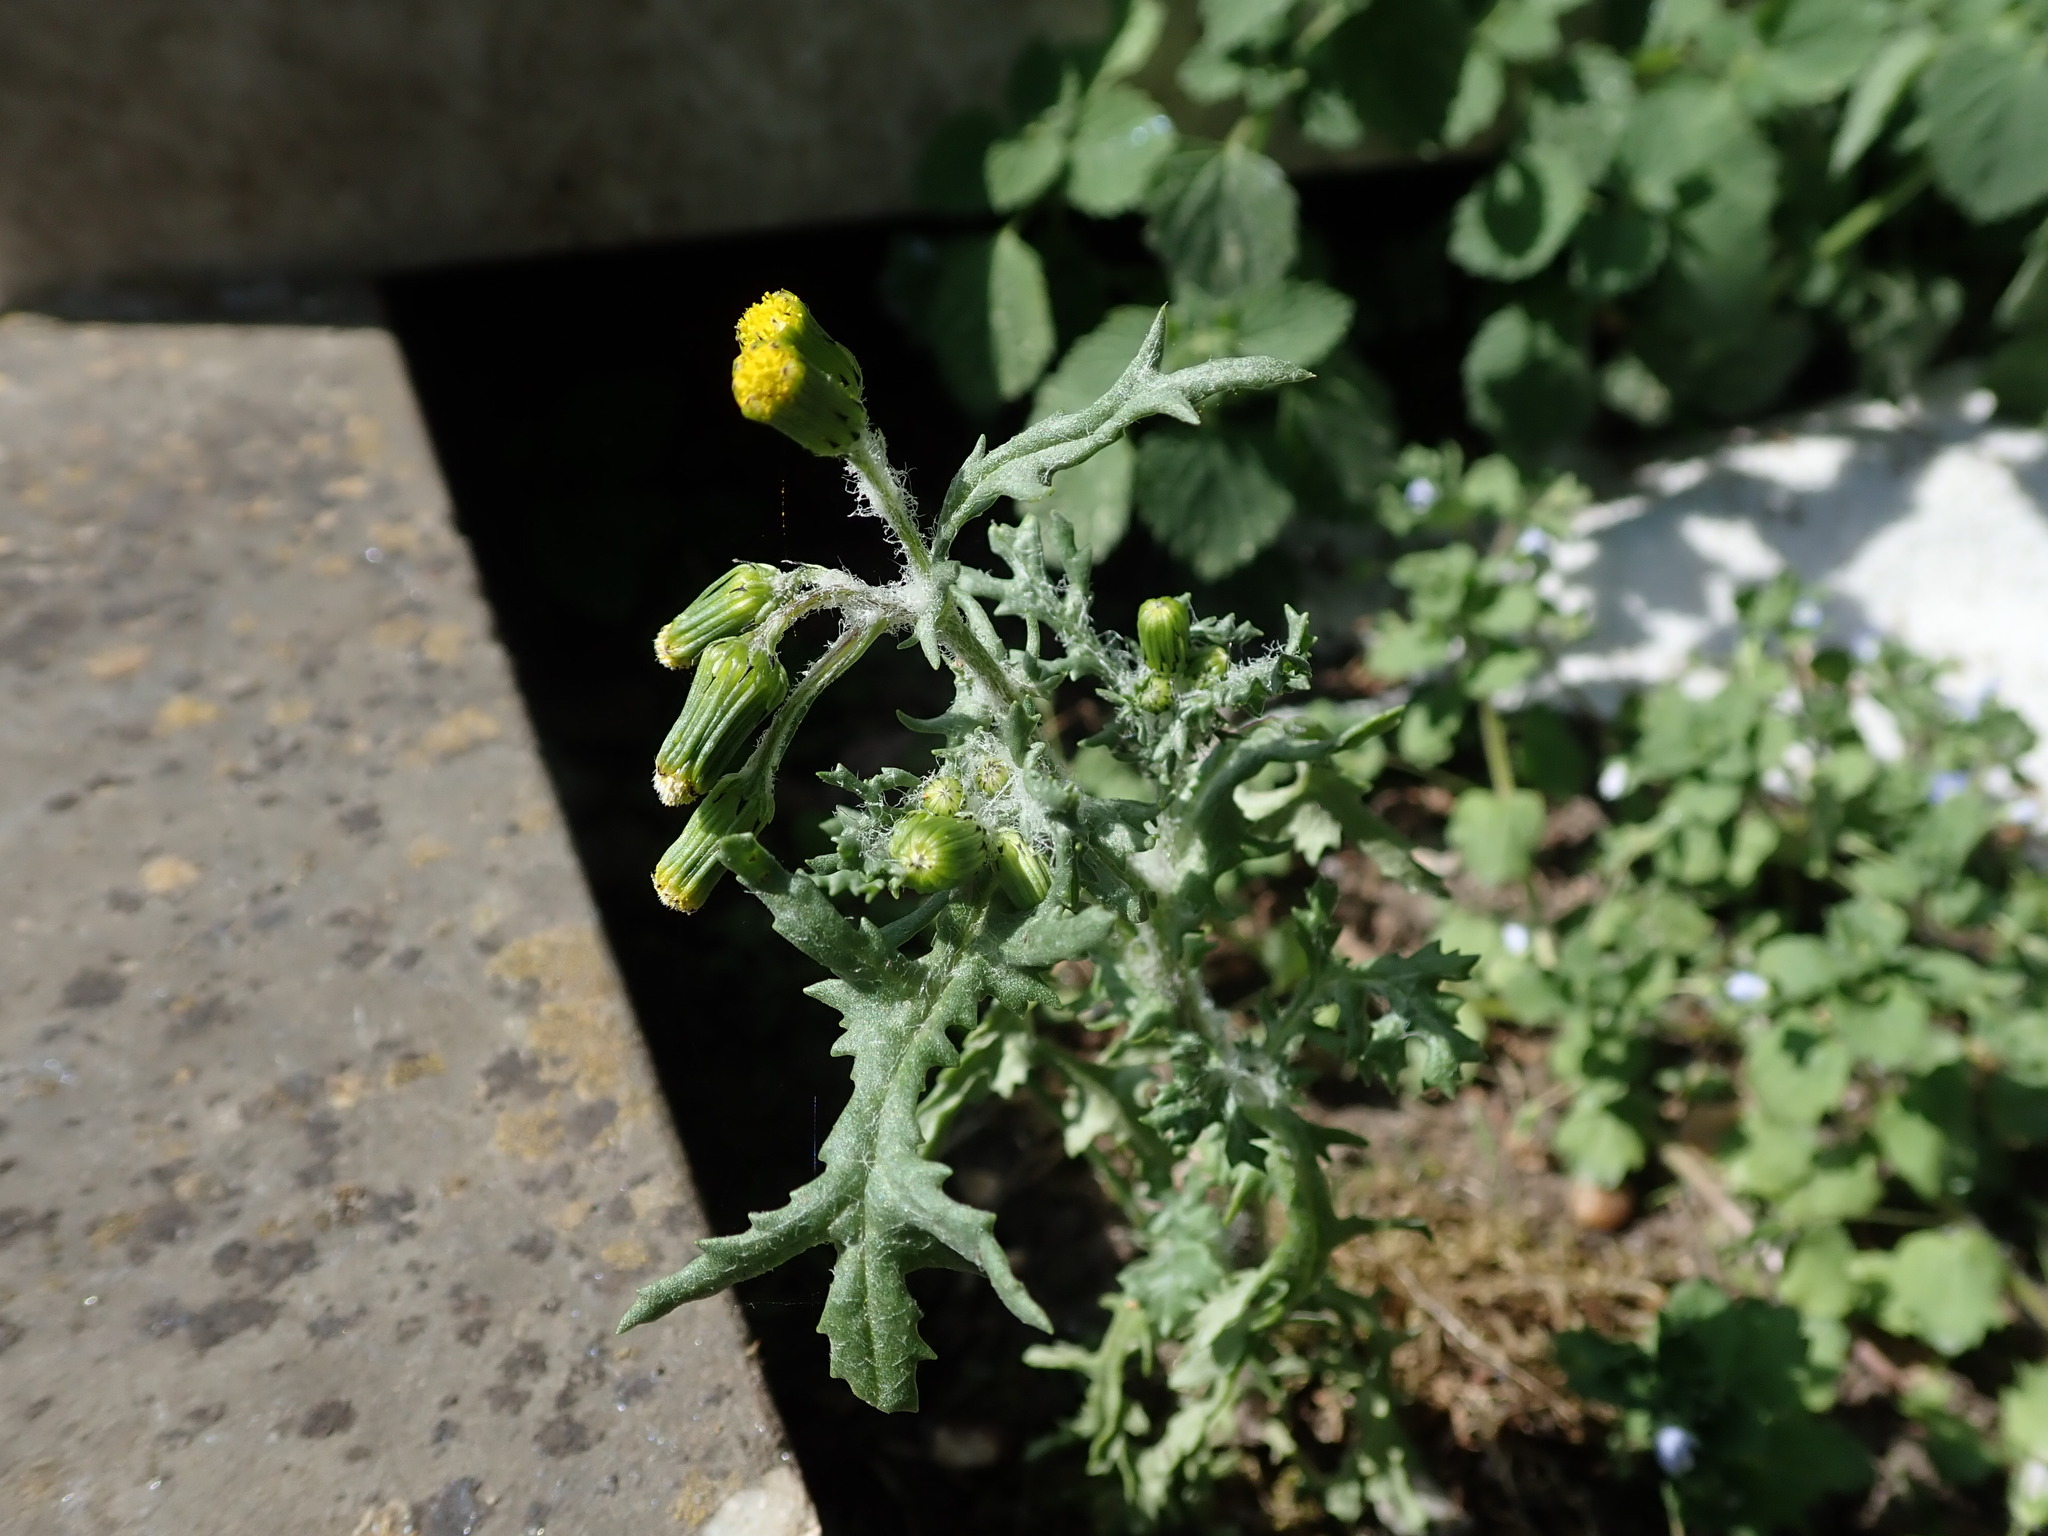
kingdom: Plantae
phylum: Tracheophyta
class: Magnoliopsida
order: Asterales
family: Asteraceae
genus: Senecio
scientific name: Senecio vulgaris
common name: Old-man-in-the-spring
